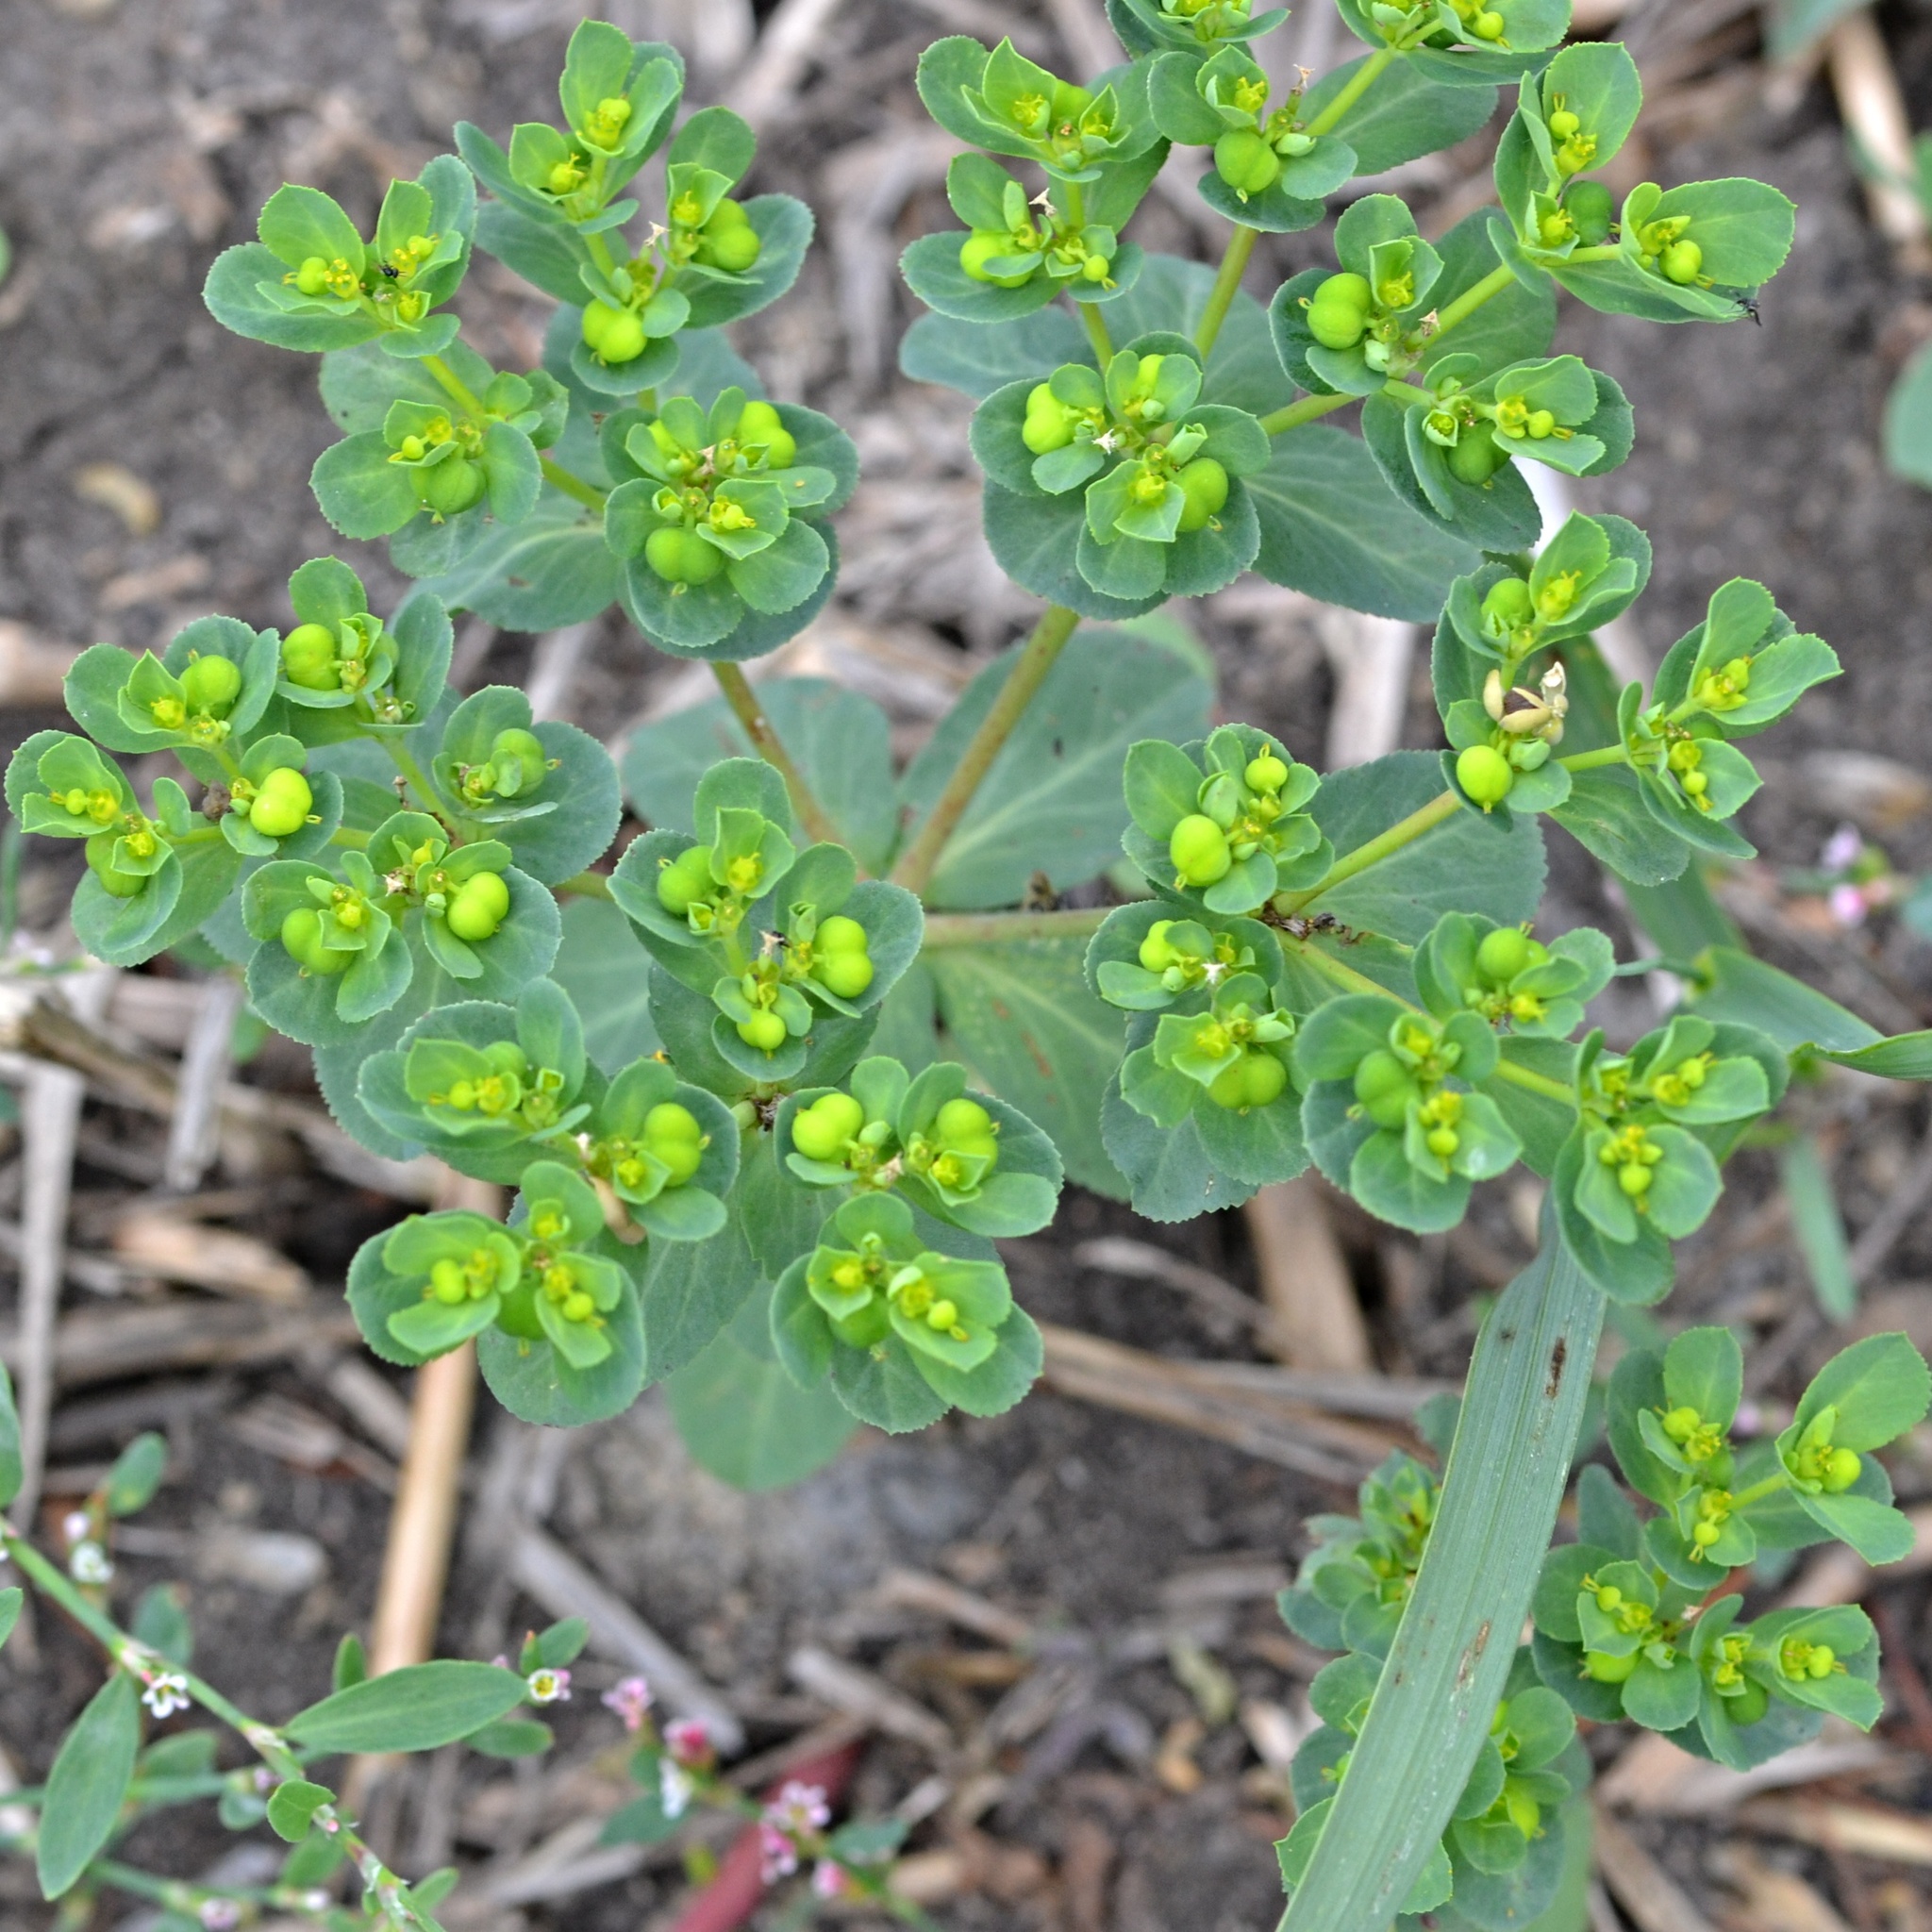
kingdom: Plantae
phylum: Tracheophyta
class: Magnoliopsida
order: Malpighiales
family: Euphorbiaceae
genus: Euphorbia
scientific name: Euphorbia helioscopia
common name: Sun spurge
